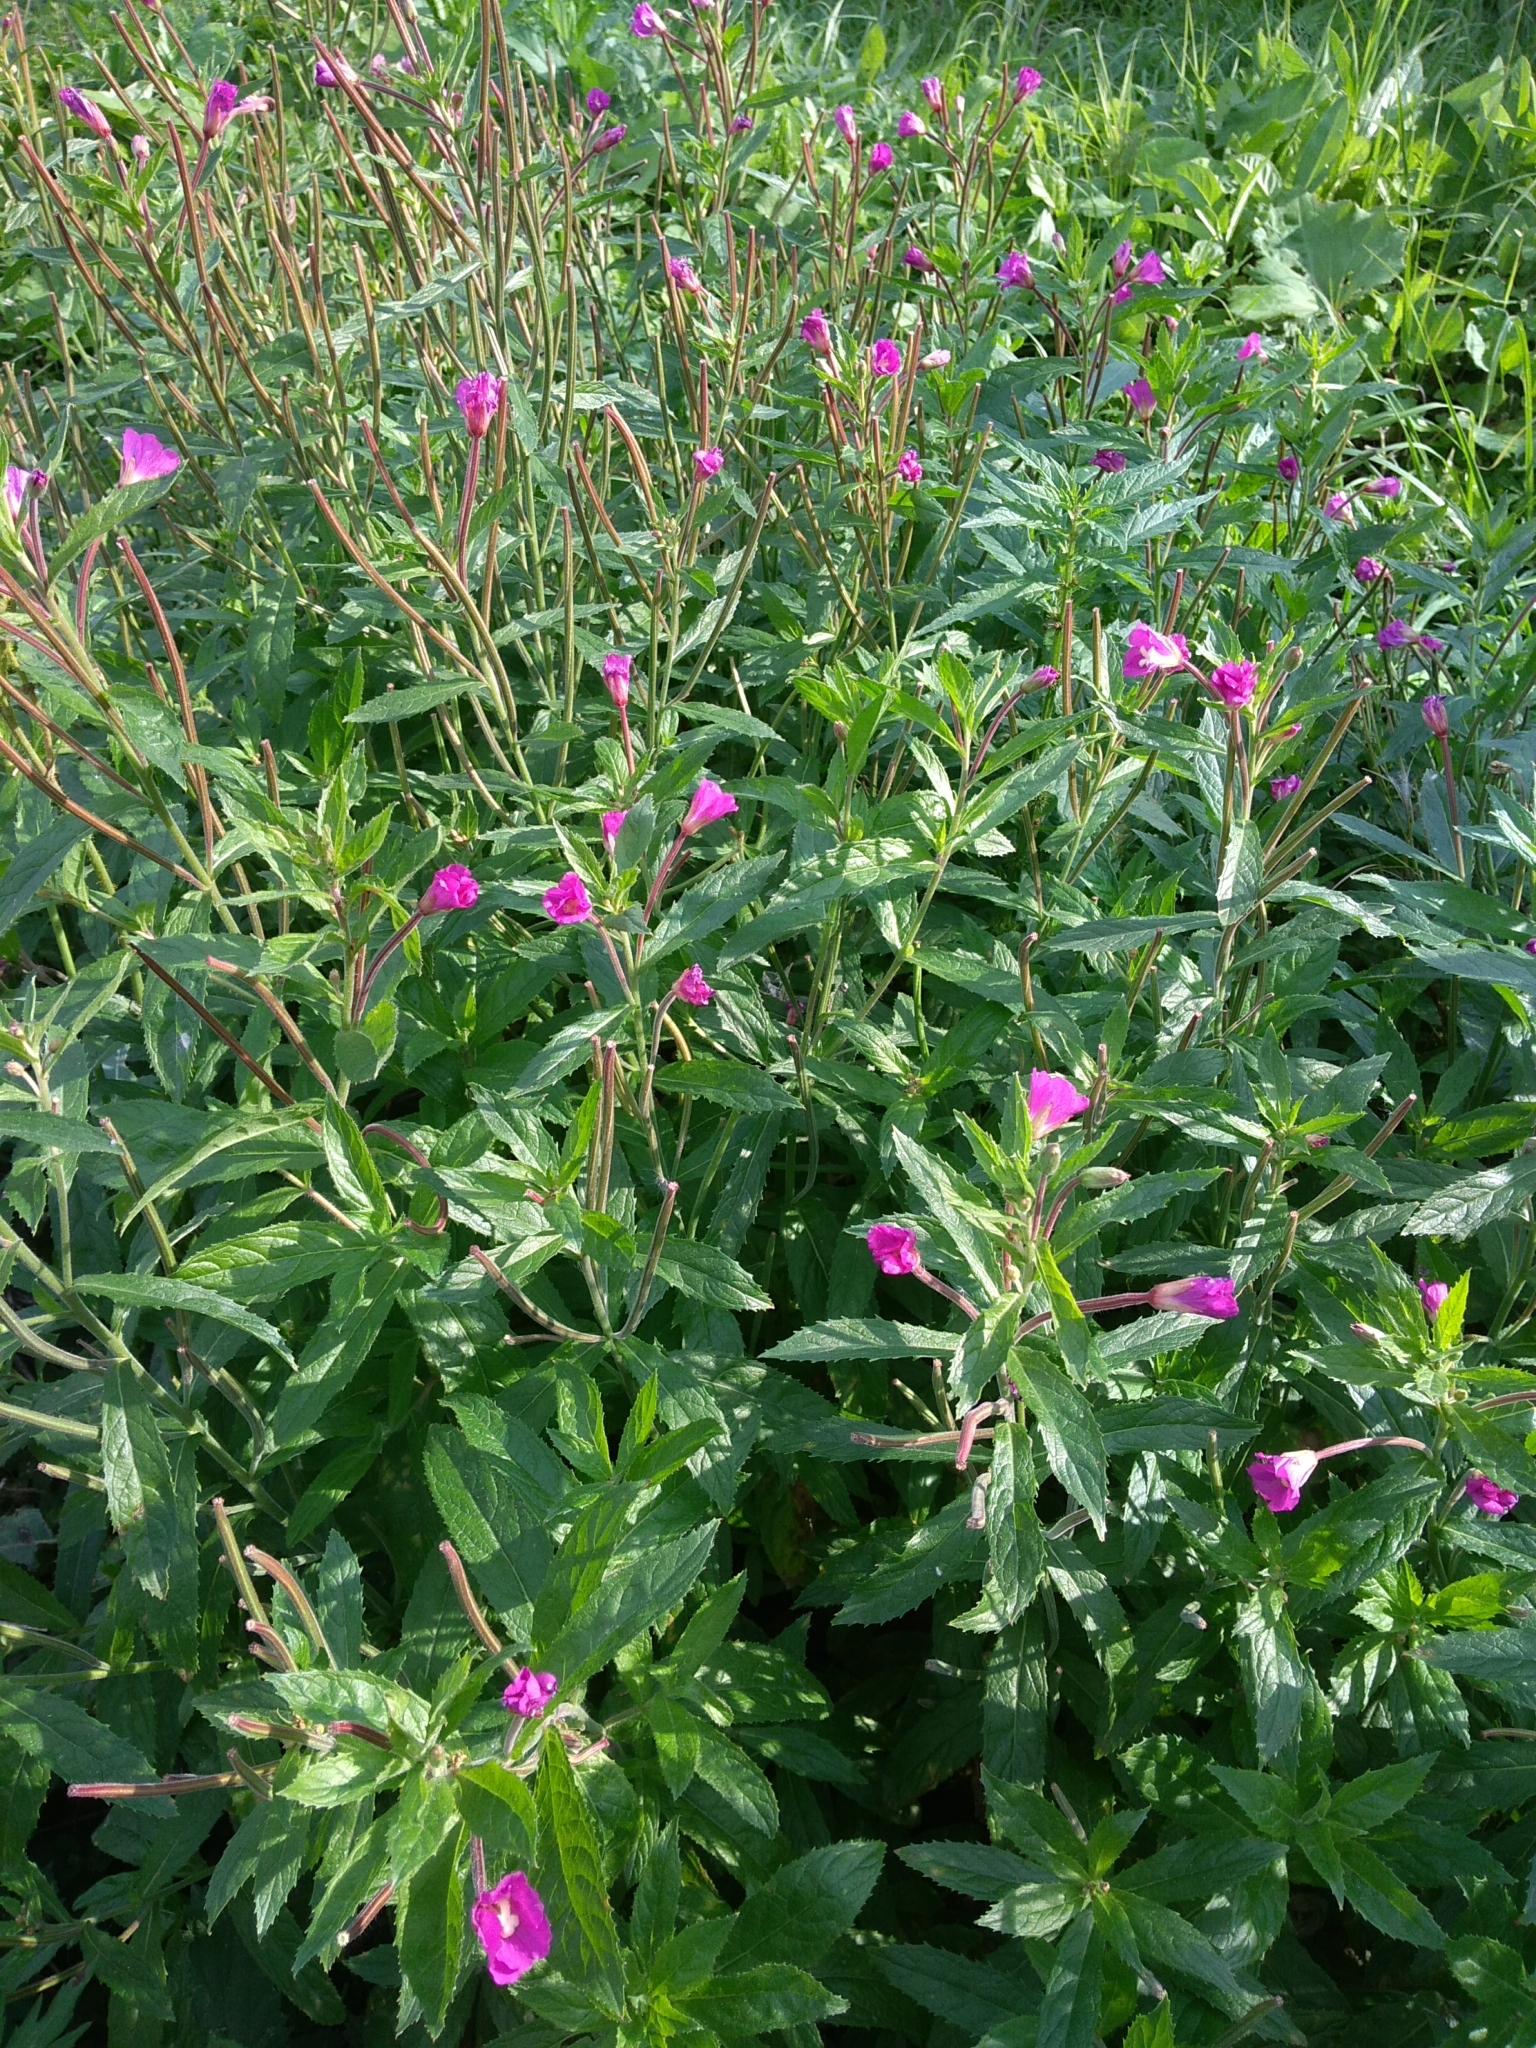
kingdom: Plantae
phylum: Tracheophyta
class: Magnoliopsida
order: Myrtales
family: Onagraceae
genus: Epilobium
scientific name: Epilobium hirsutum
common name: Great willowherb
